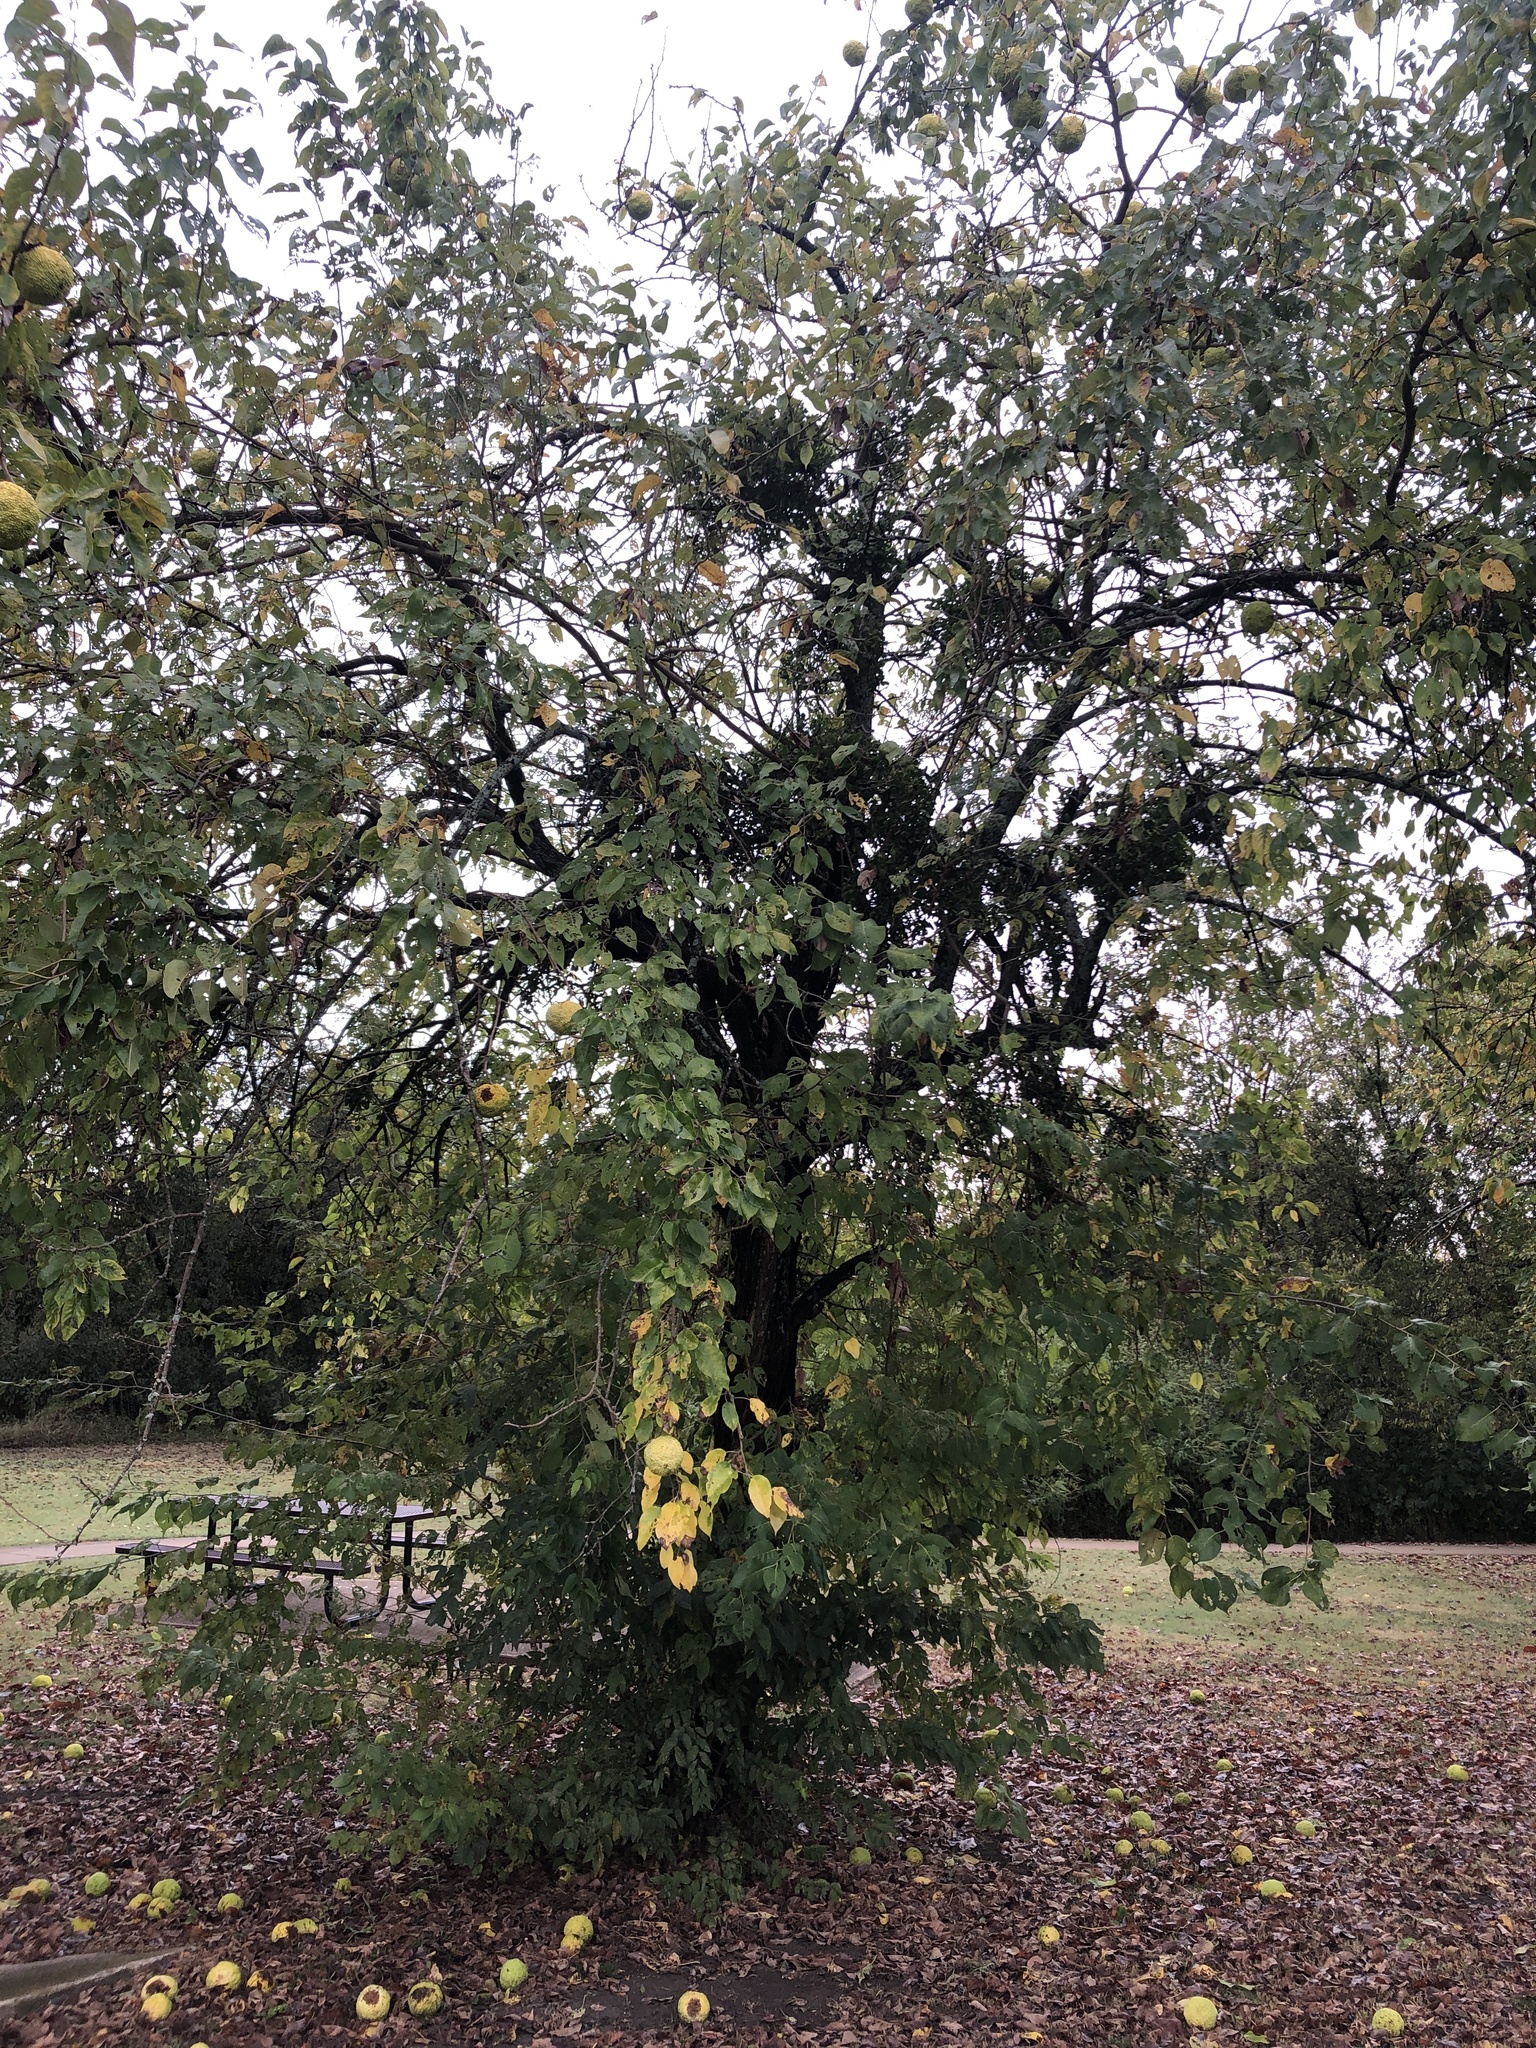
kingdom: Plantae
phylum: Tracheophyta
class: Magnoliopsida
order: Rosales
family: Moraceae
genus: Maclura
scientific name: Maclura pomifera
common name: Osage-orange
